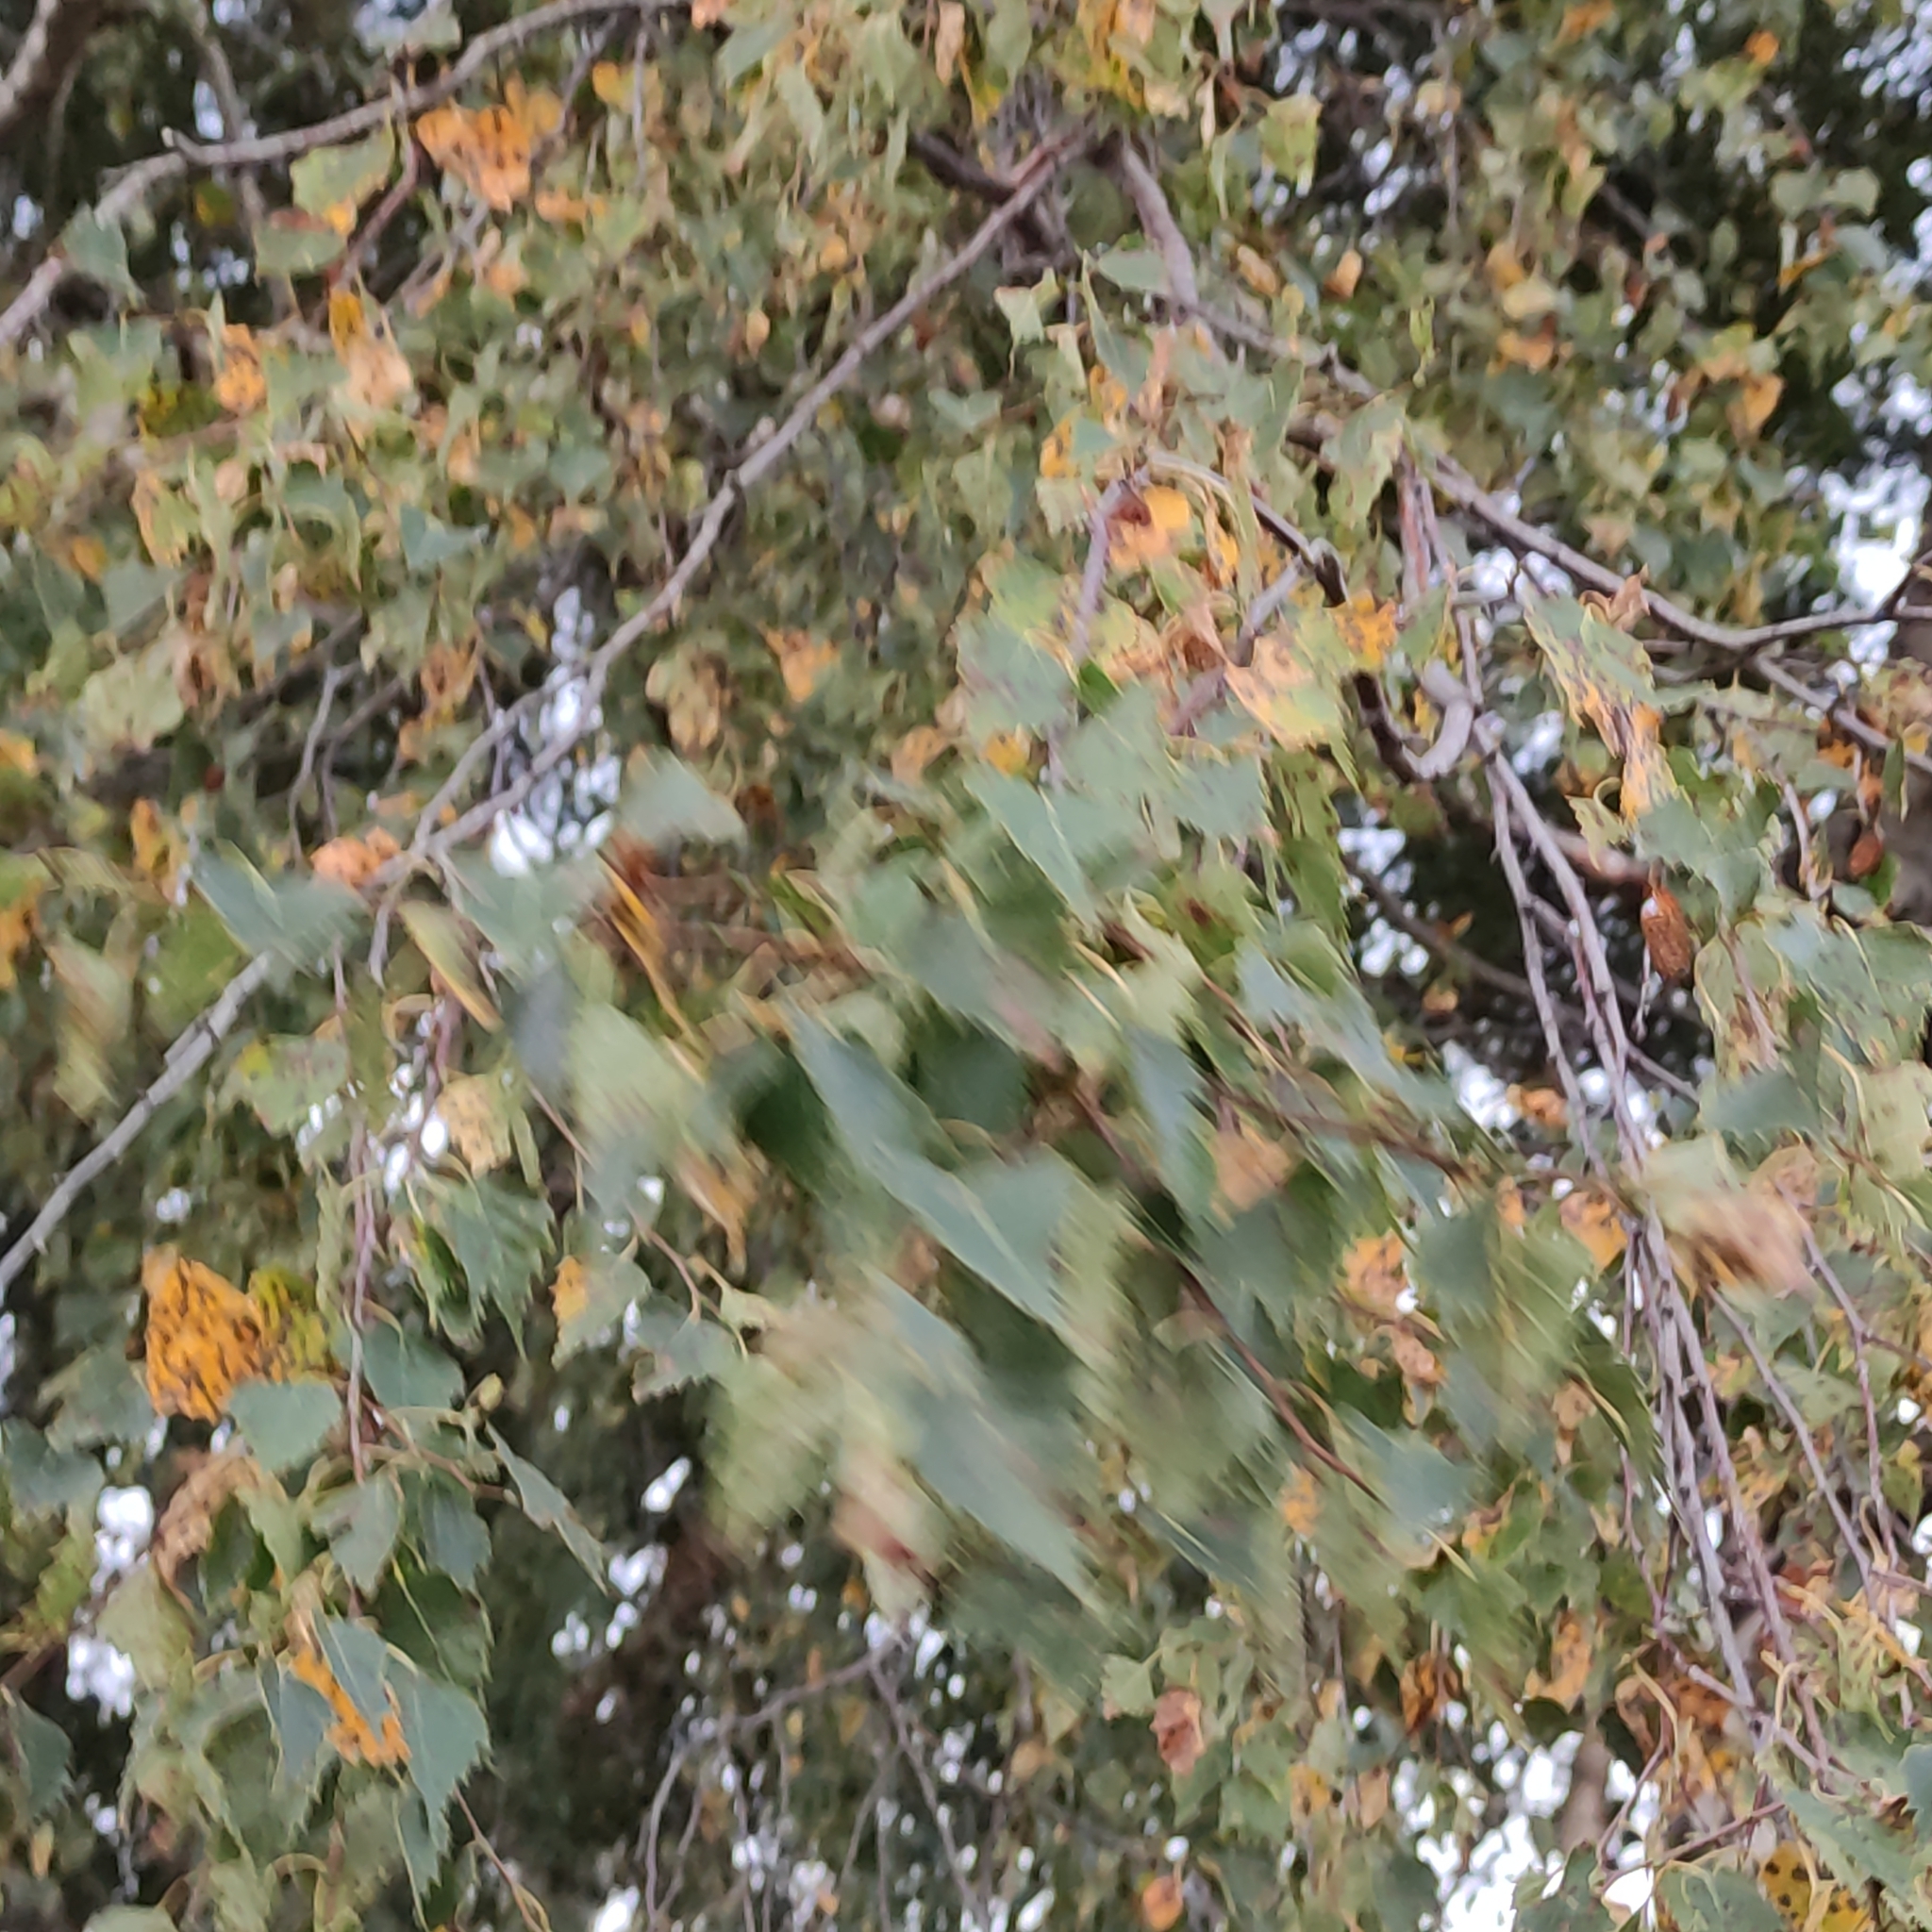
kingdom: Plantae
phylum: Tracheophyta
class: Magnoliopsida
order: Fagales
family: Betulaceae
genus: Betula
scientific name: Betula pendula
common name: Silver birch
